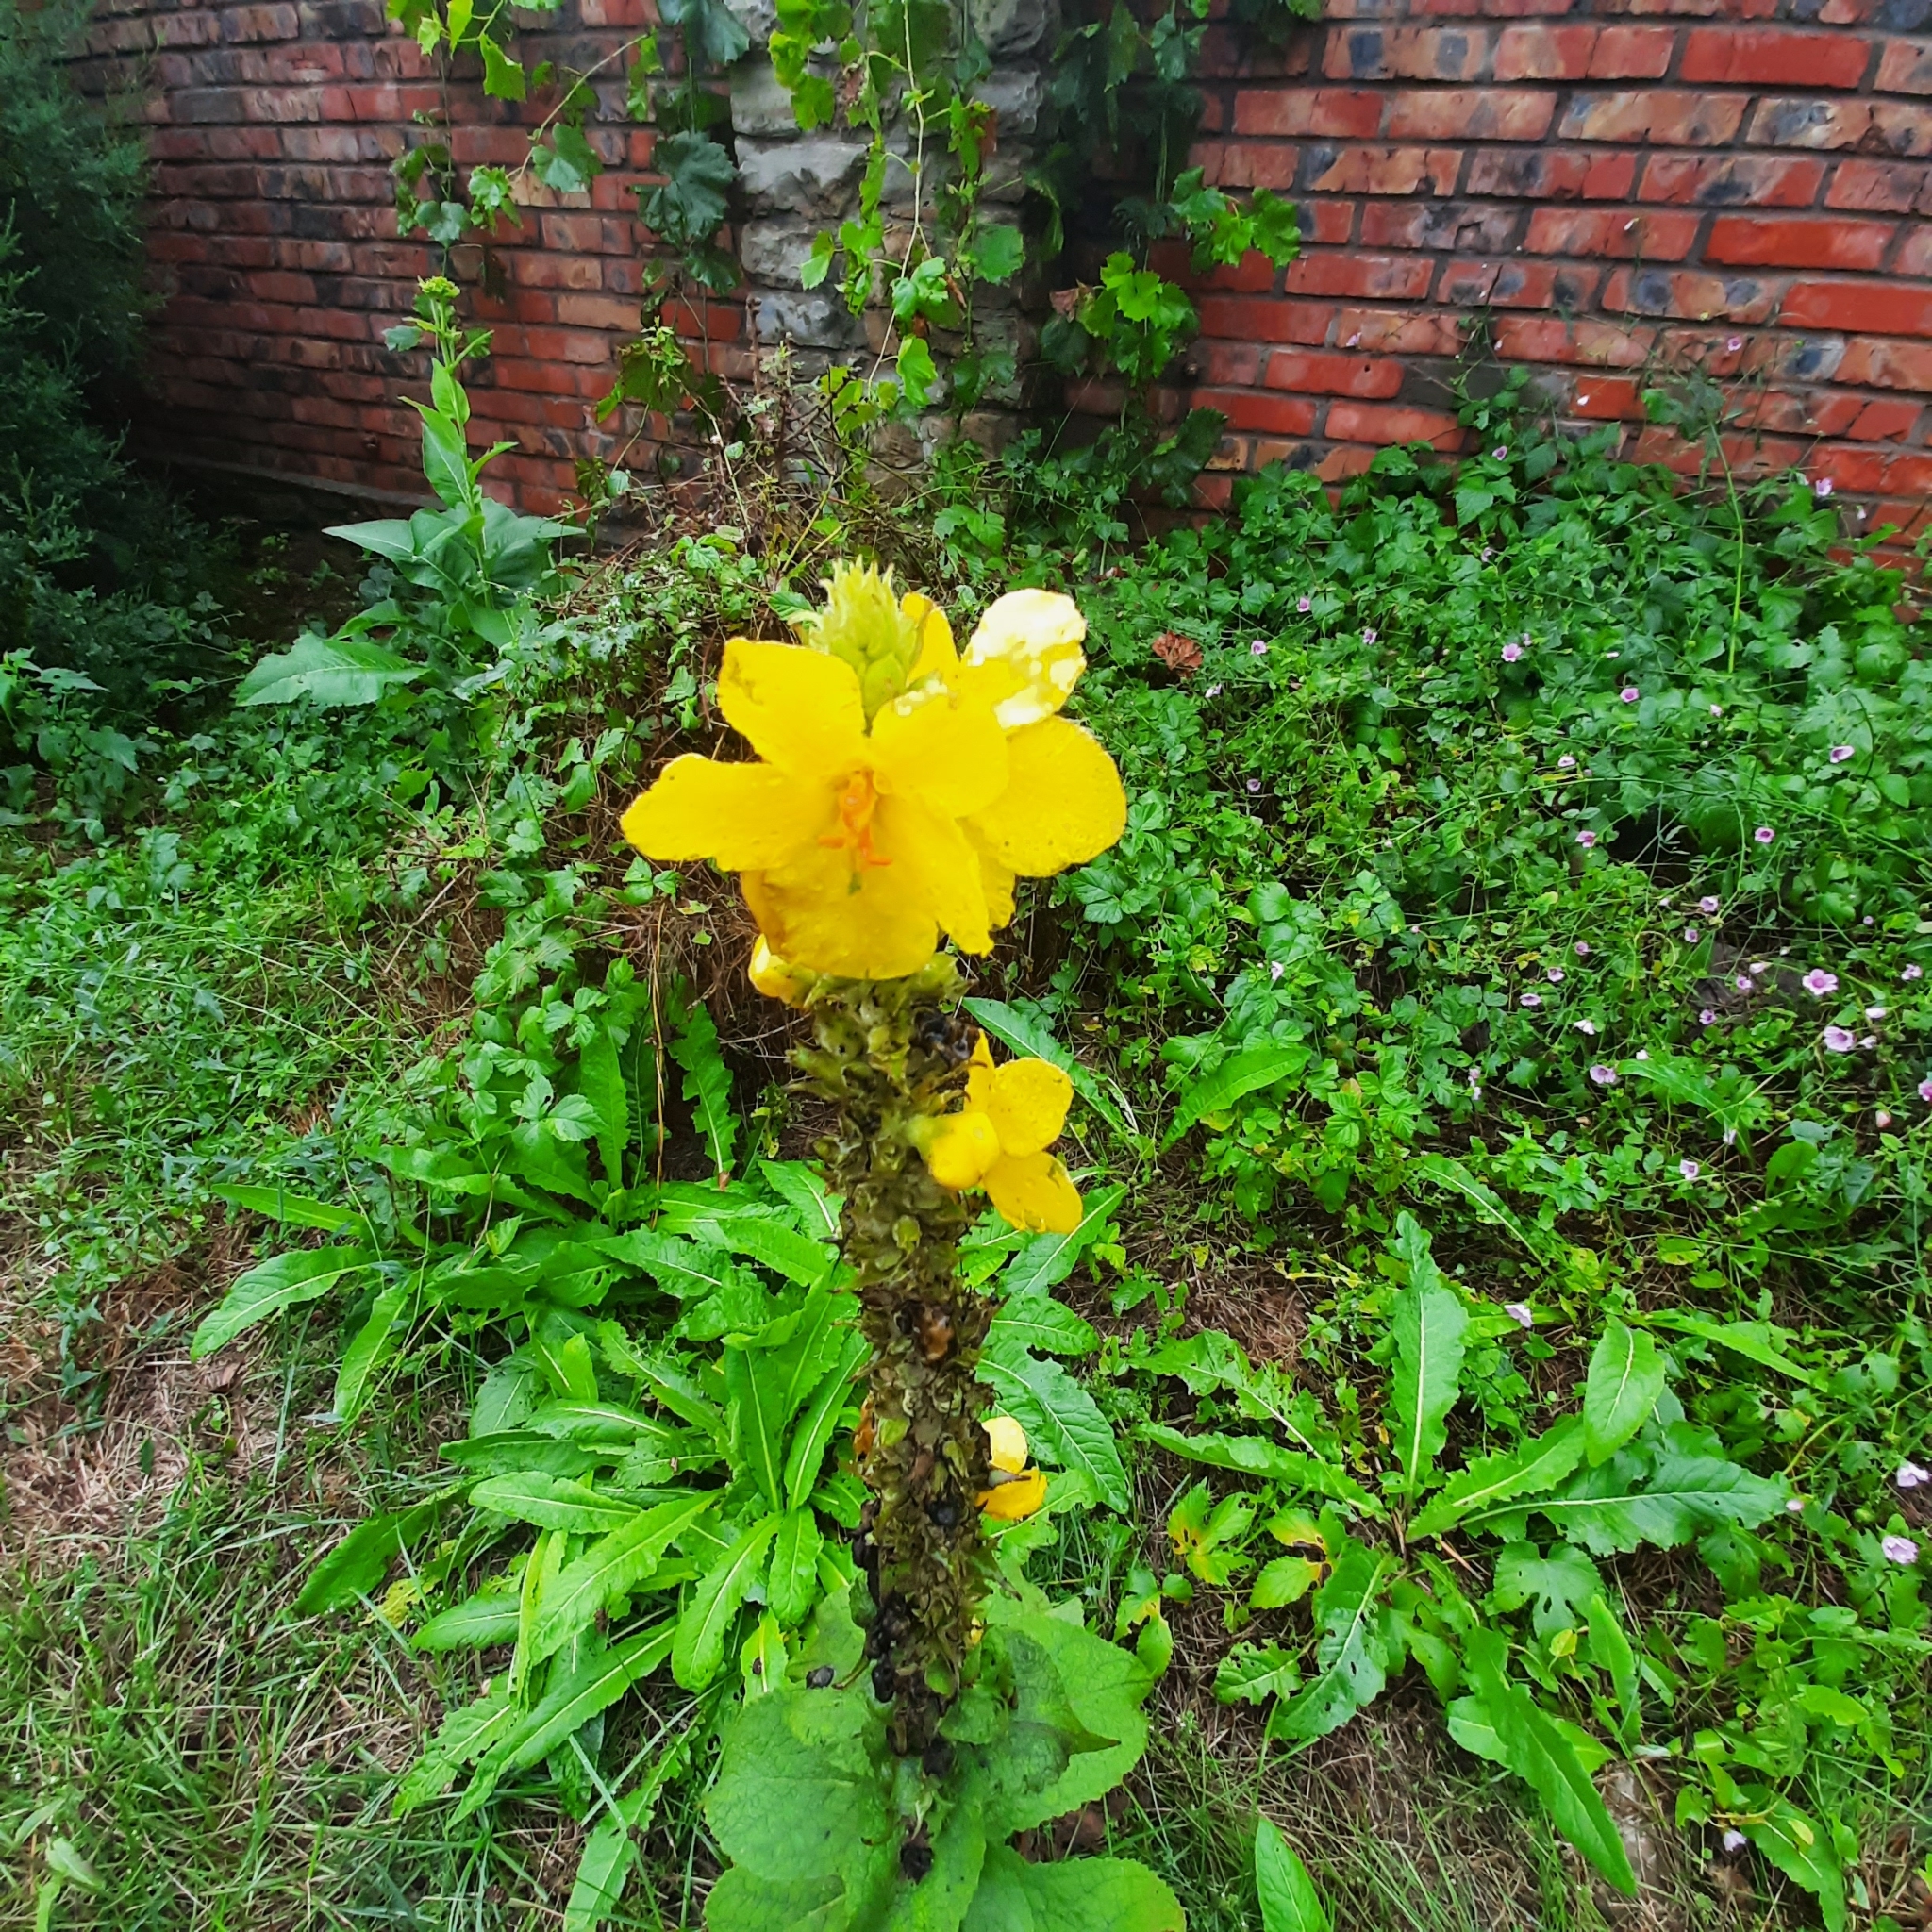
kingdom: Plantae
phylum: Tracheophyta
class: Magnoliopsida
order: Lamiales
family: Scrophulariaceae
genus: Verbascum
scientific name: Verbascum phlomoides
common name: Orange mullein
